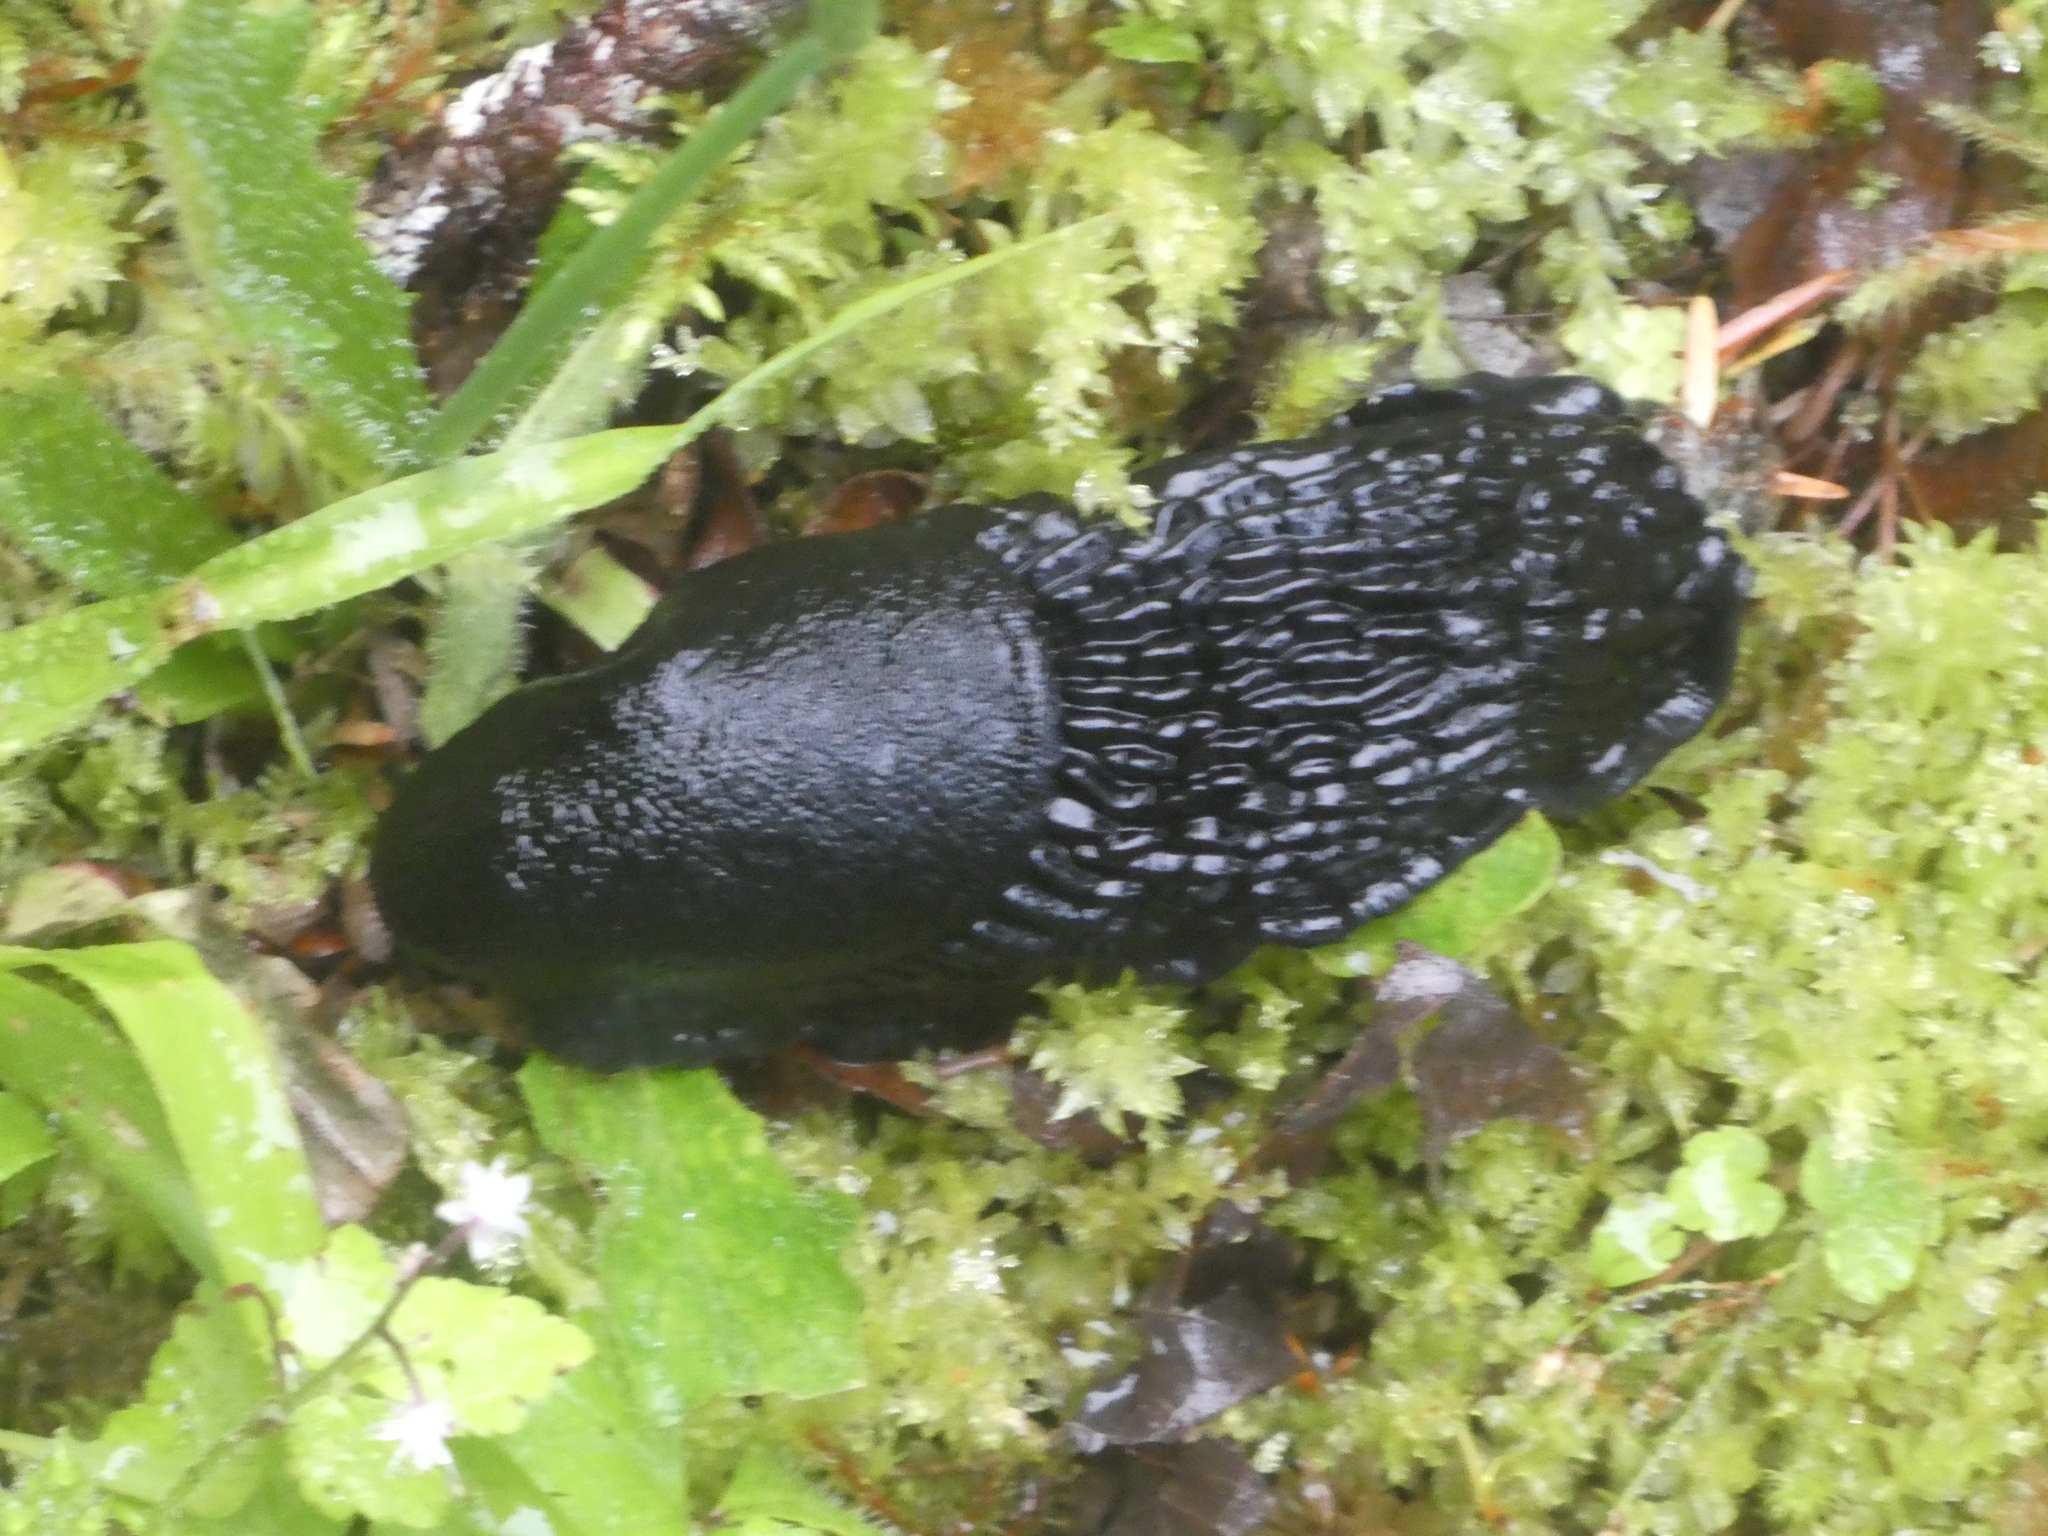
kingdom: Animalia
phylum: Mollusca
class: Gastropoda
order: Stylommatophora
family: Arionidae
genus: Arion
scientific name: Arion
